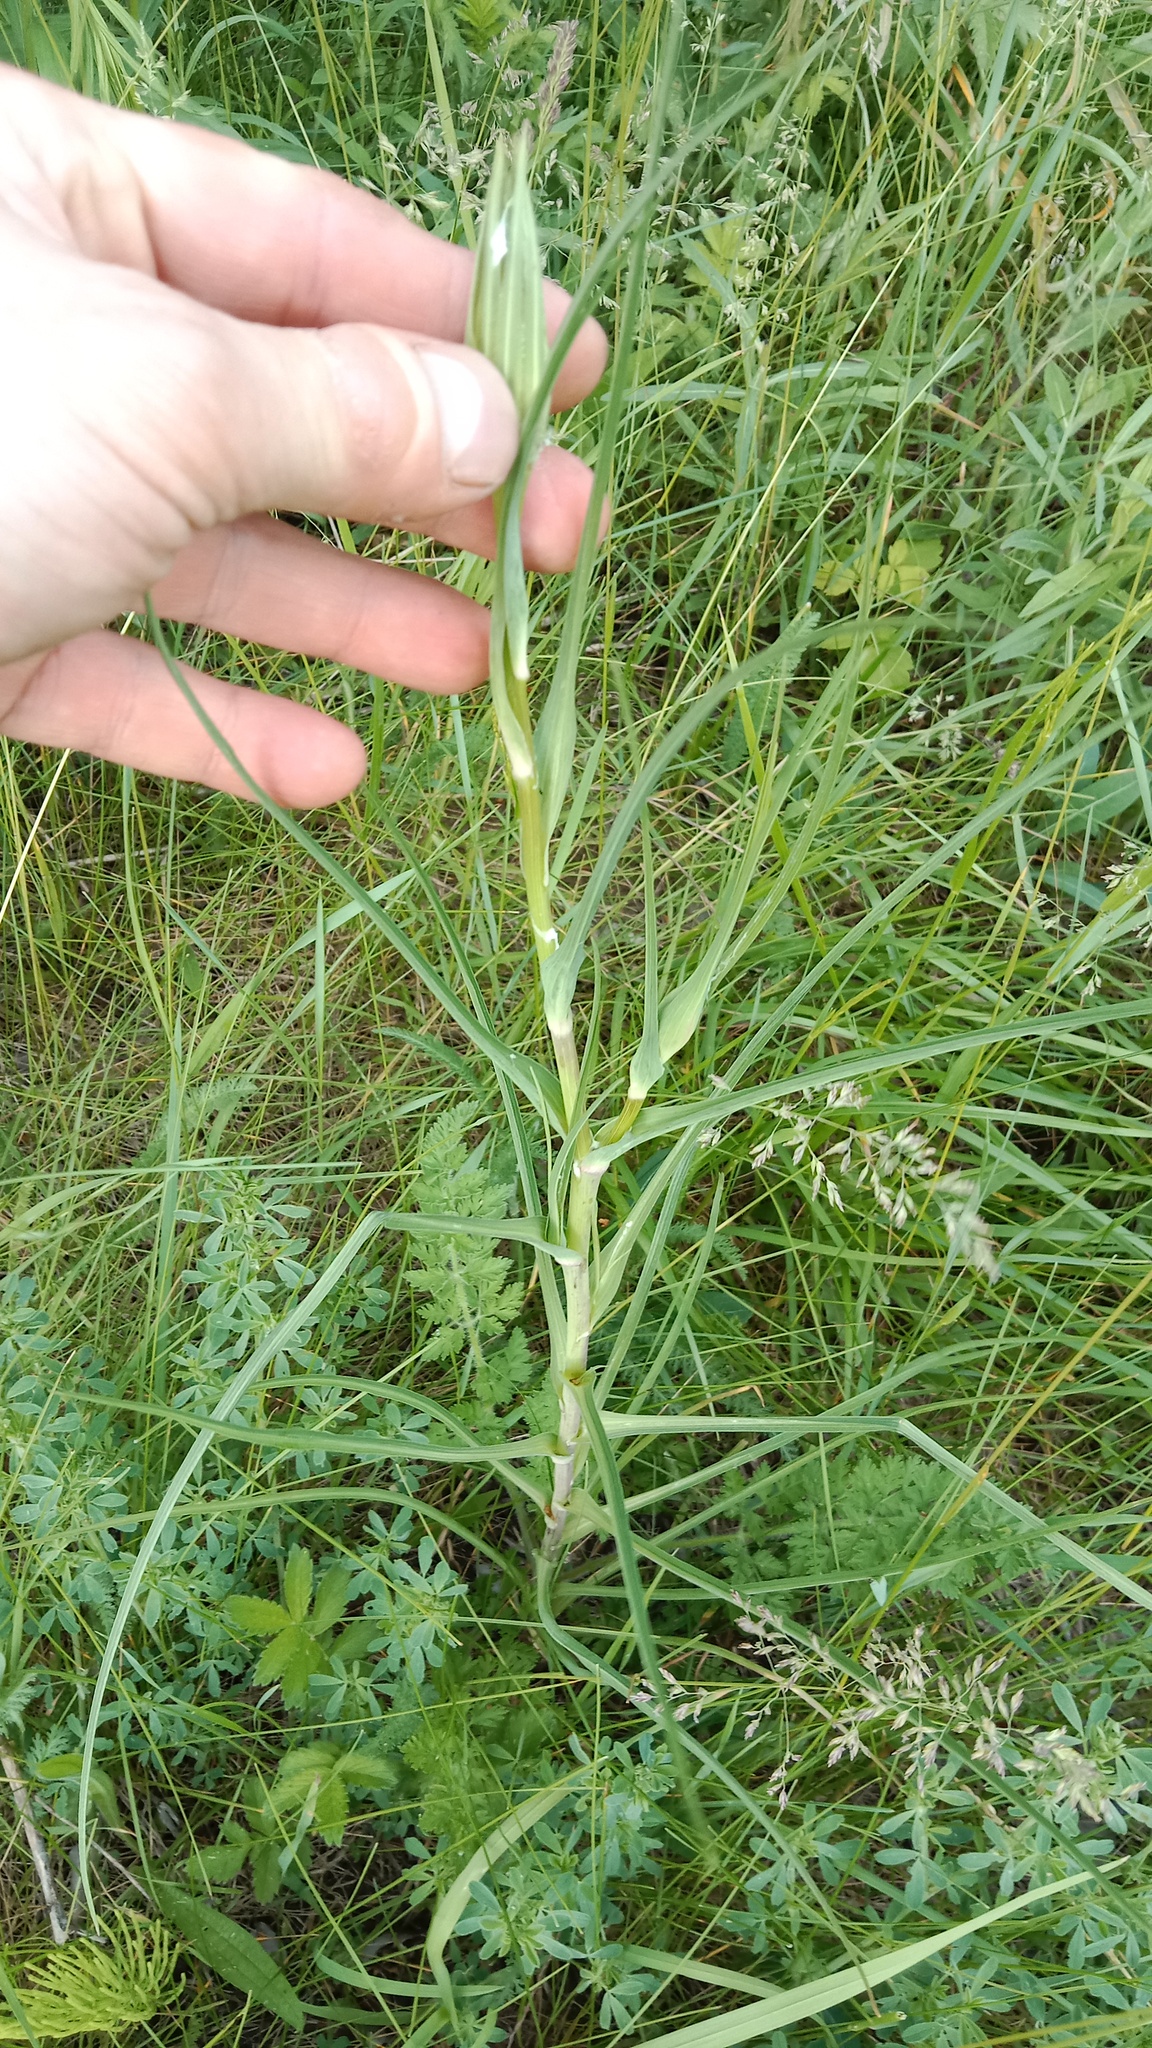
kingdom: Plantae
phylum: Tracheophyta
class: Magnoliopsida
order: Asterales
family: Asteraceae
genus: Tragopogon
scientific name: Tragopogon dubius
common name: Yellow salsify
